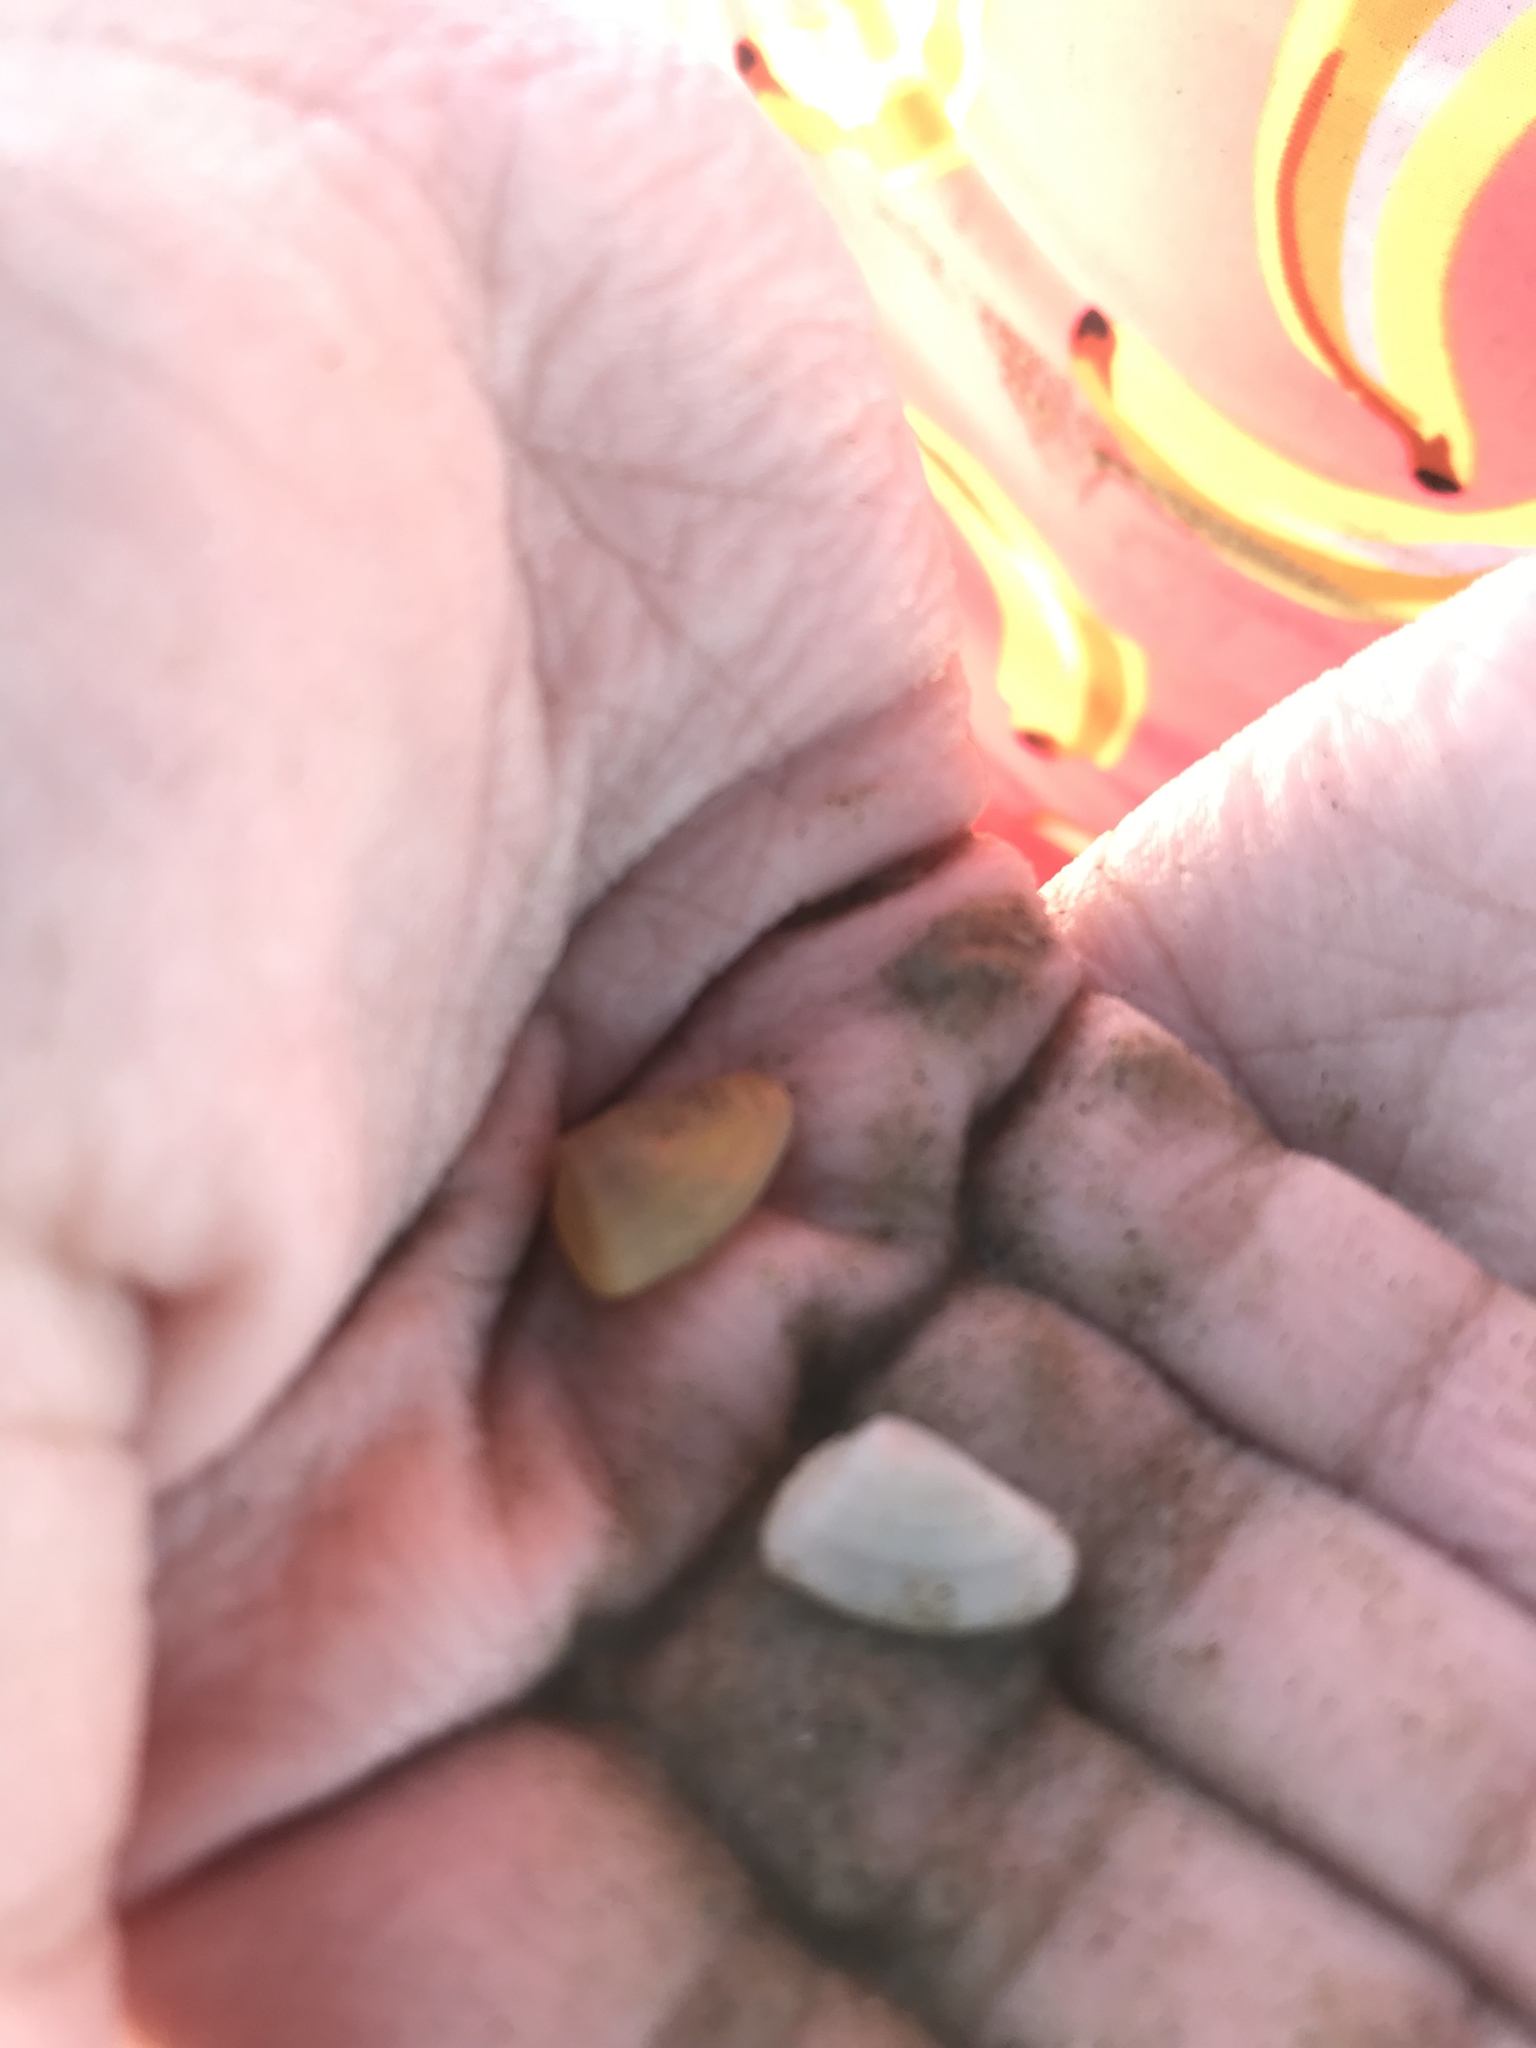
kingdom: Animalia
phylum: Mollusca
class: Bivalvia
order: Cardiida
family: Donacidae
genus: Donax
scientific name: Donax variabilis
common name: Butterfly shell
